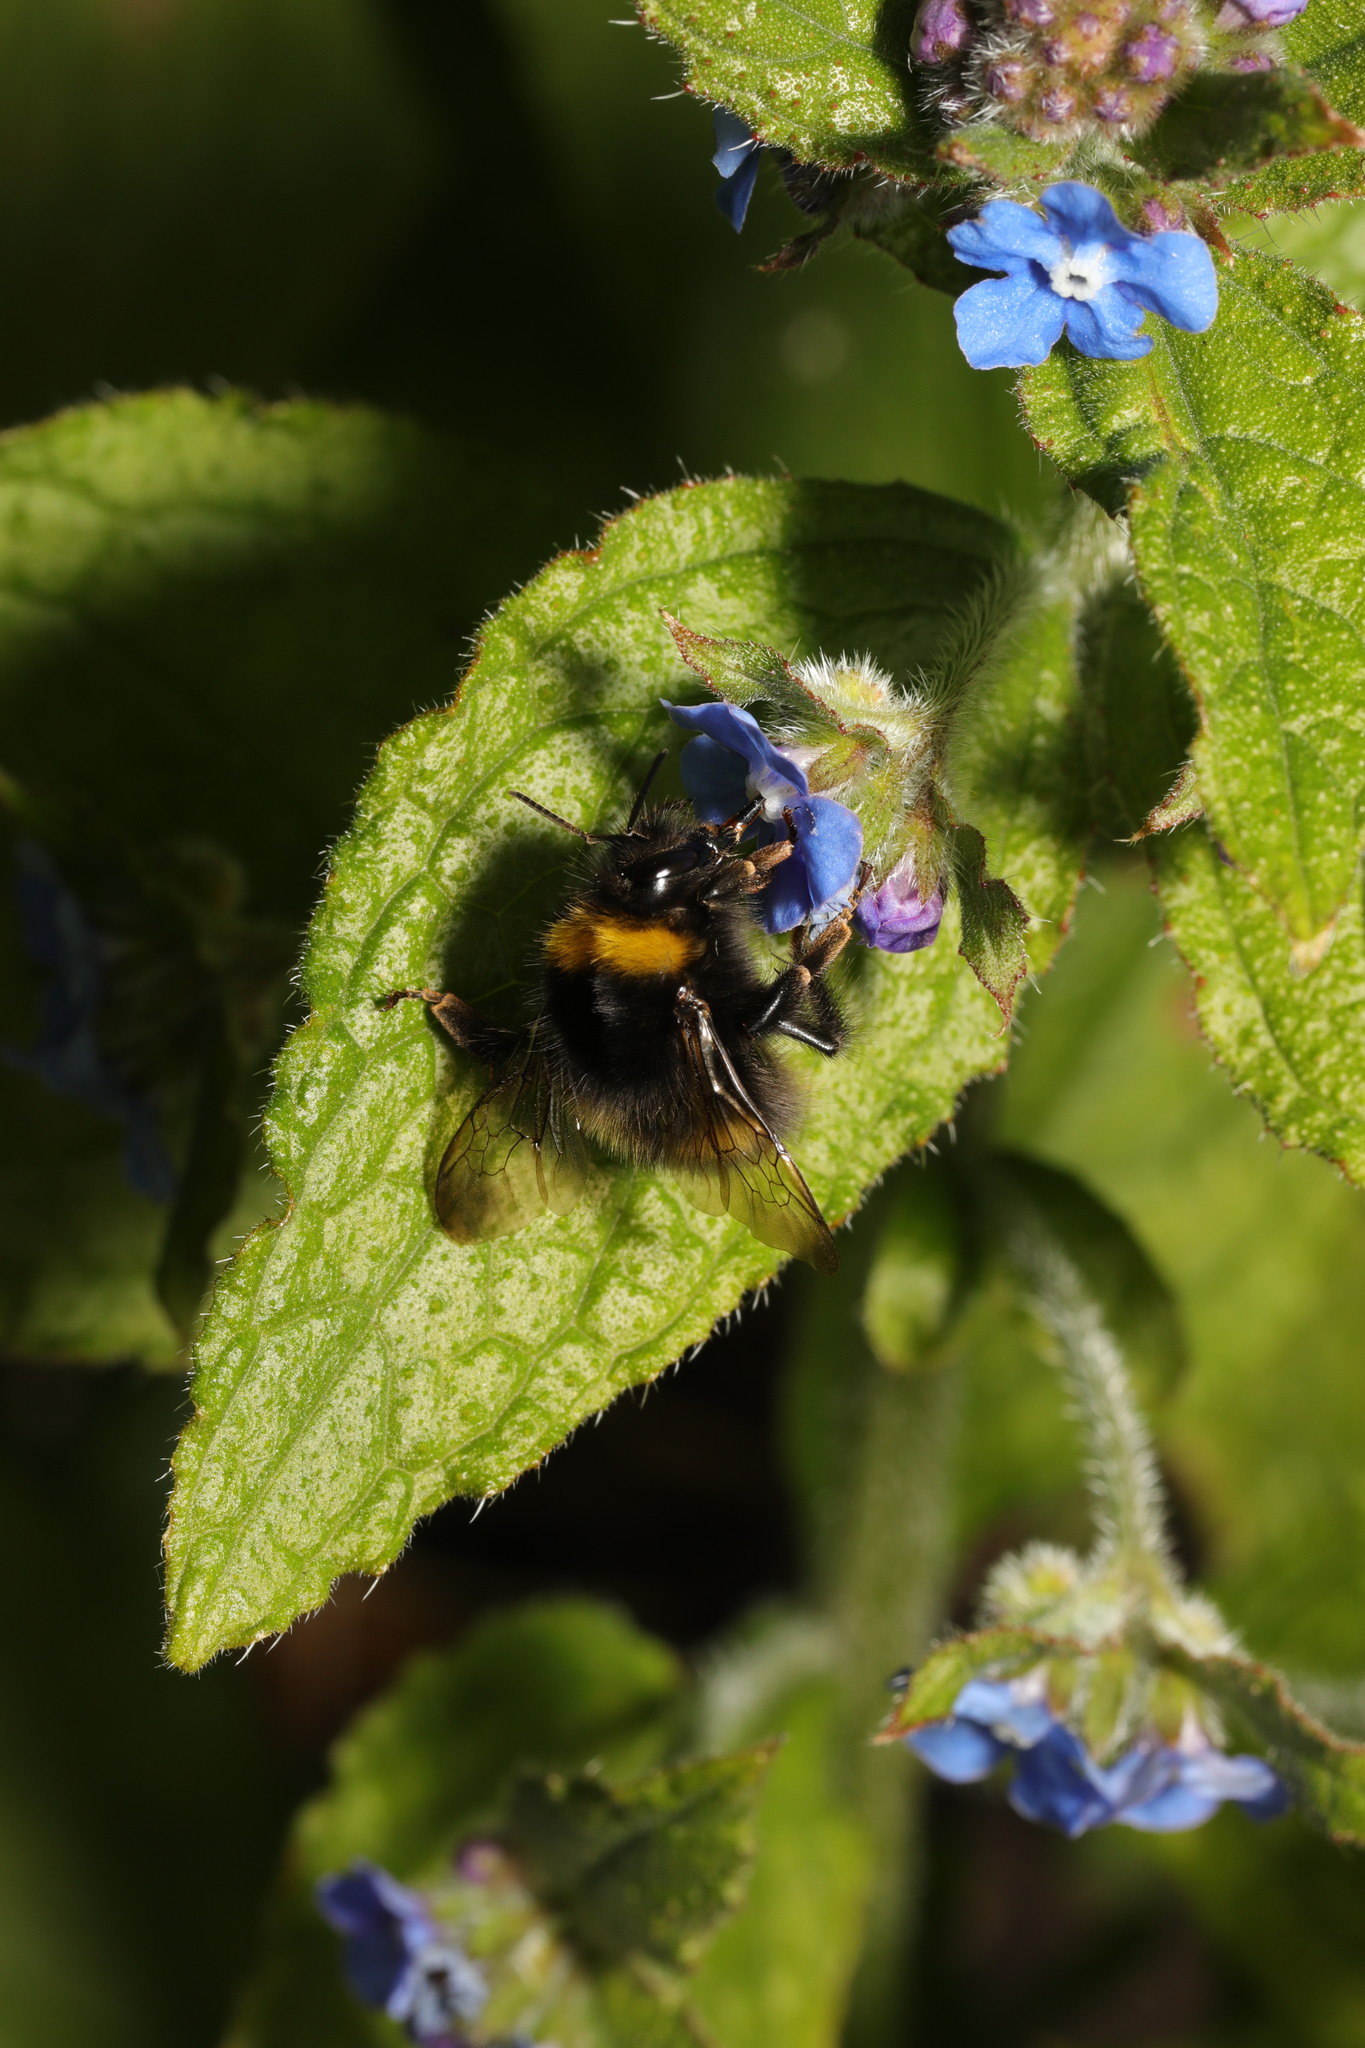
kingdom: Animalia
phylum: Arthropoda
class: Insecta
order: Hymenoptera
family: Apidae
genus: Bombus
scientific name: Bombus pratorum
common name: Early humble-bee
